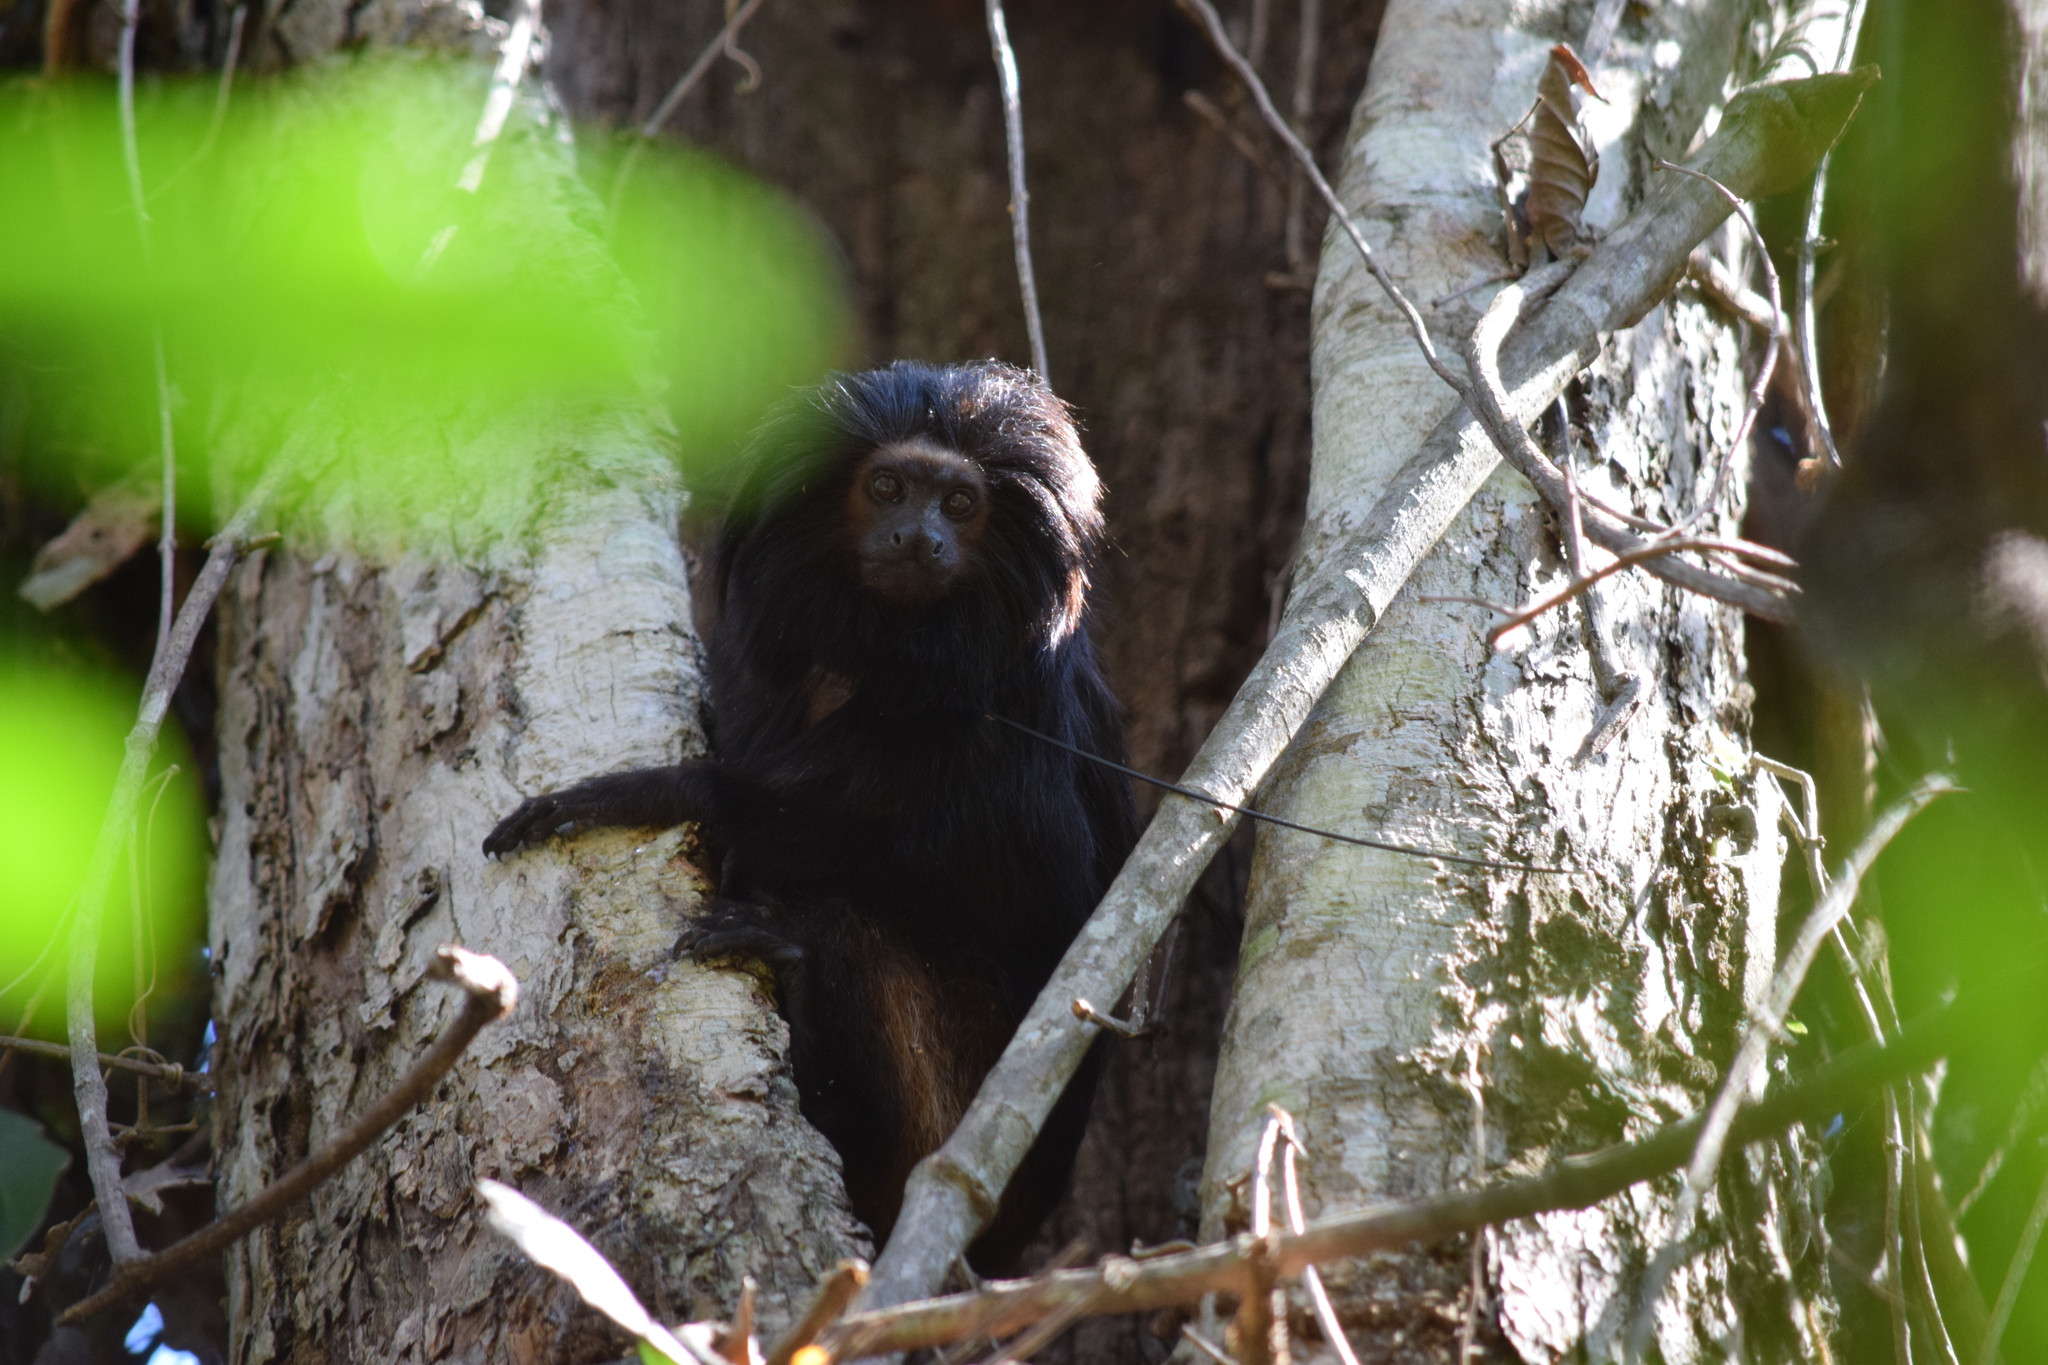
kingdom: Animalia
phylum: Chordata
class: Mammalia
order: Primates
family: Callitrichidae
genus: Leontopithecus
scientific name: Leontopithecus chrysopygus
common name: Black lion tamarin
